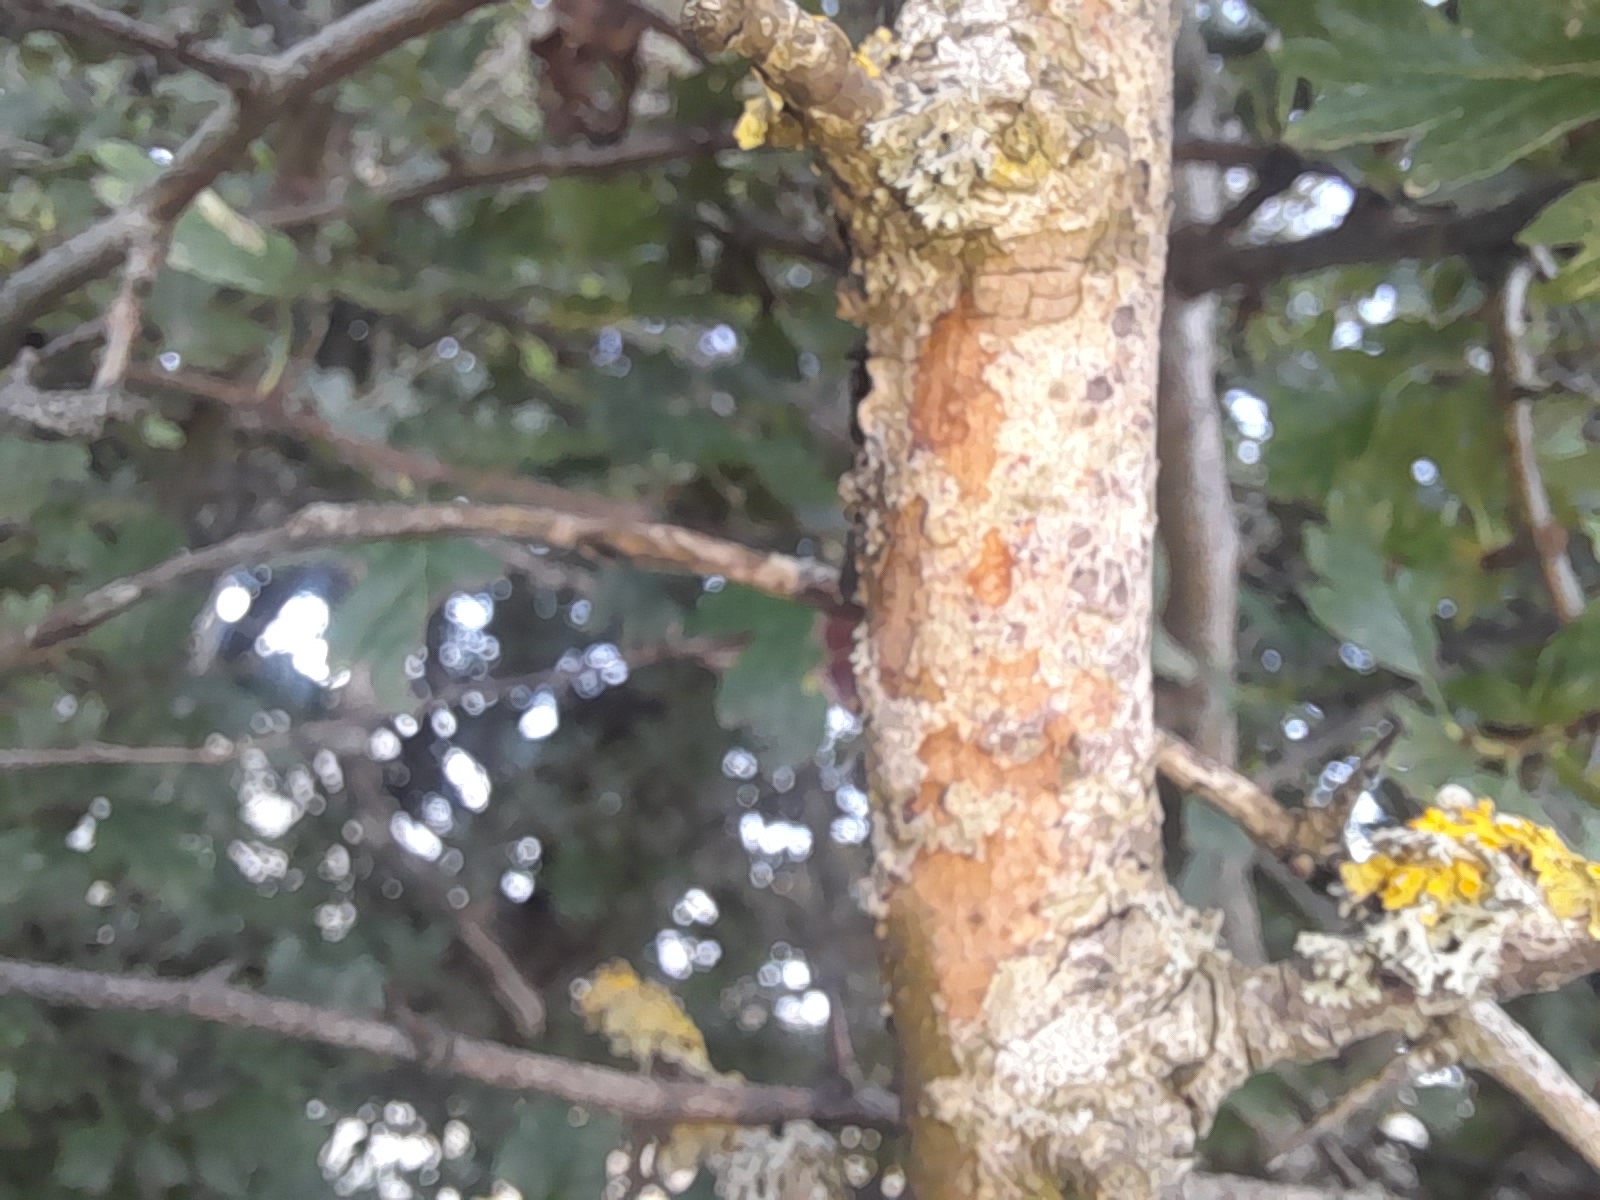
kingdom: Plantae
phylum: Tracheophyta
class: Magnoliopsida
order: Rosales
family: Rosaceae
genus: Crataegus
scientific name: Crataegus monogyna
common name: Hawthorn
